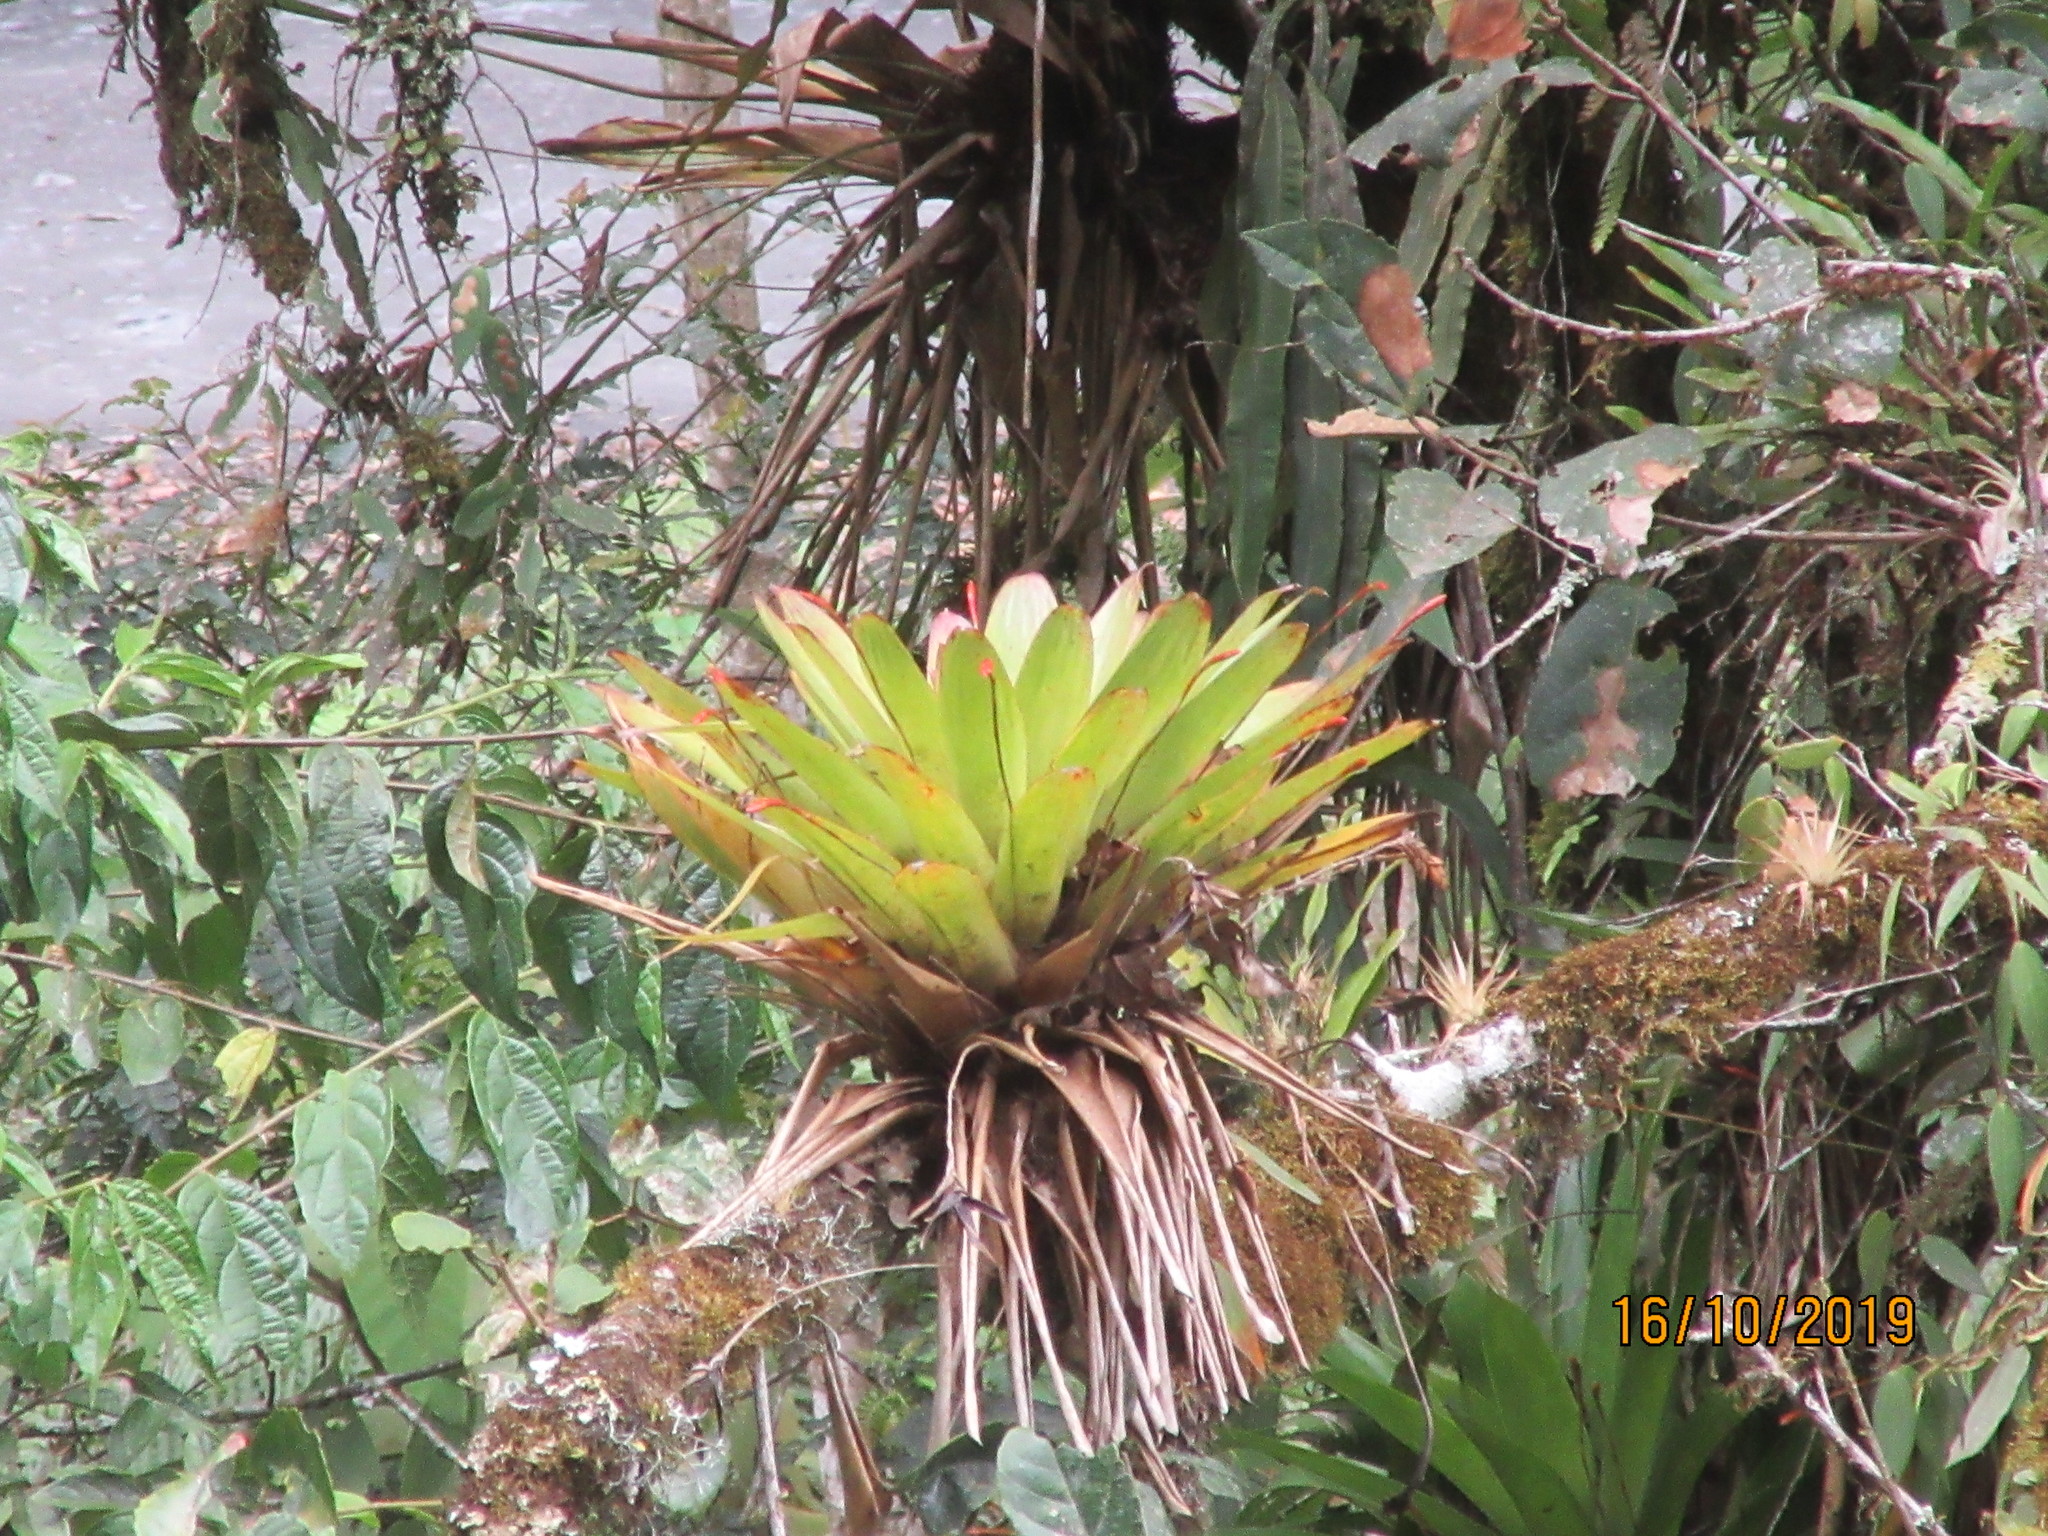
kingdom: Plantae
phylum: Tracheophyta
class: Liliopsida
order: Poales
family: Bromeliaceae
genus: Tillandsia
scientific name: Tillandsia complanata
